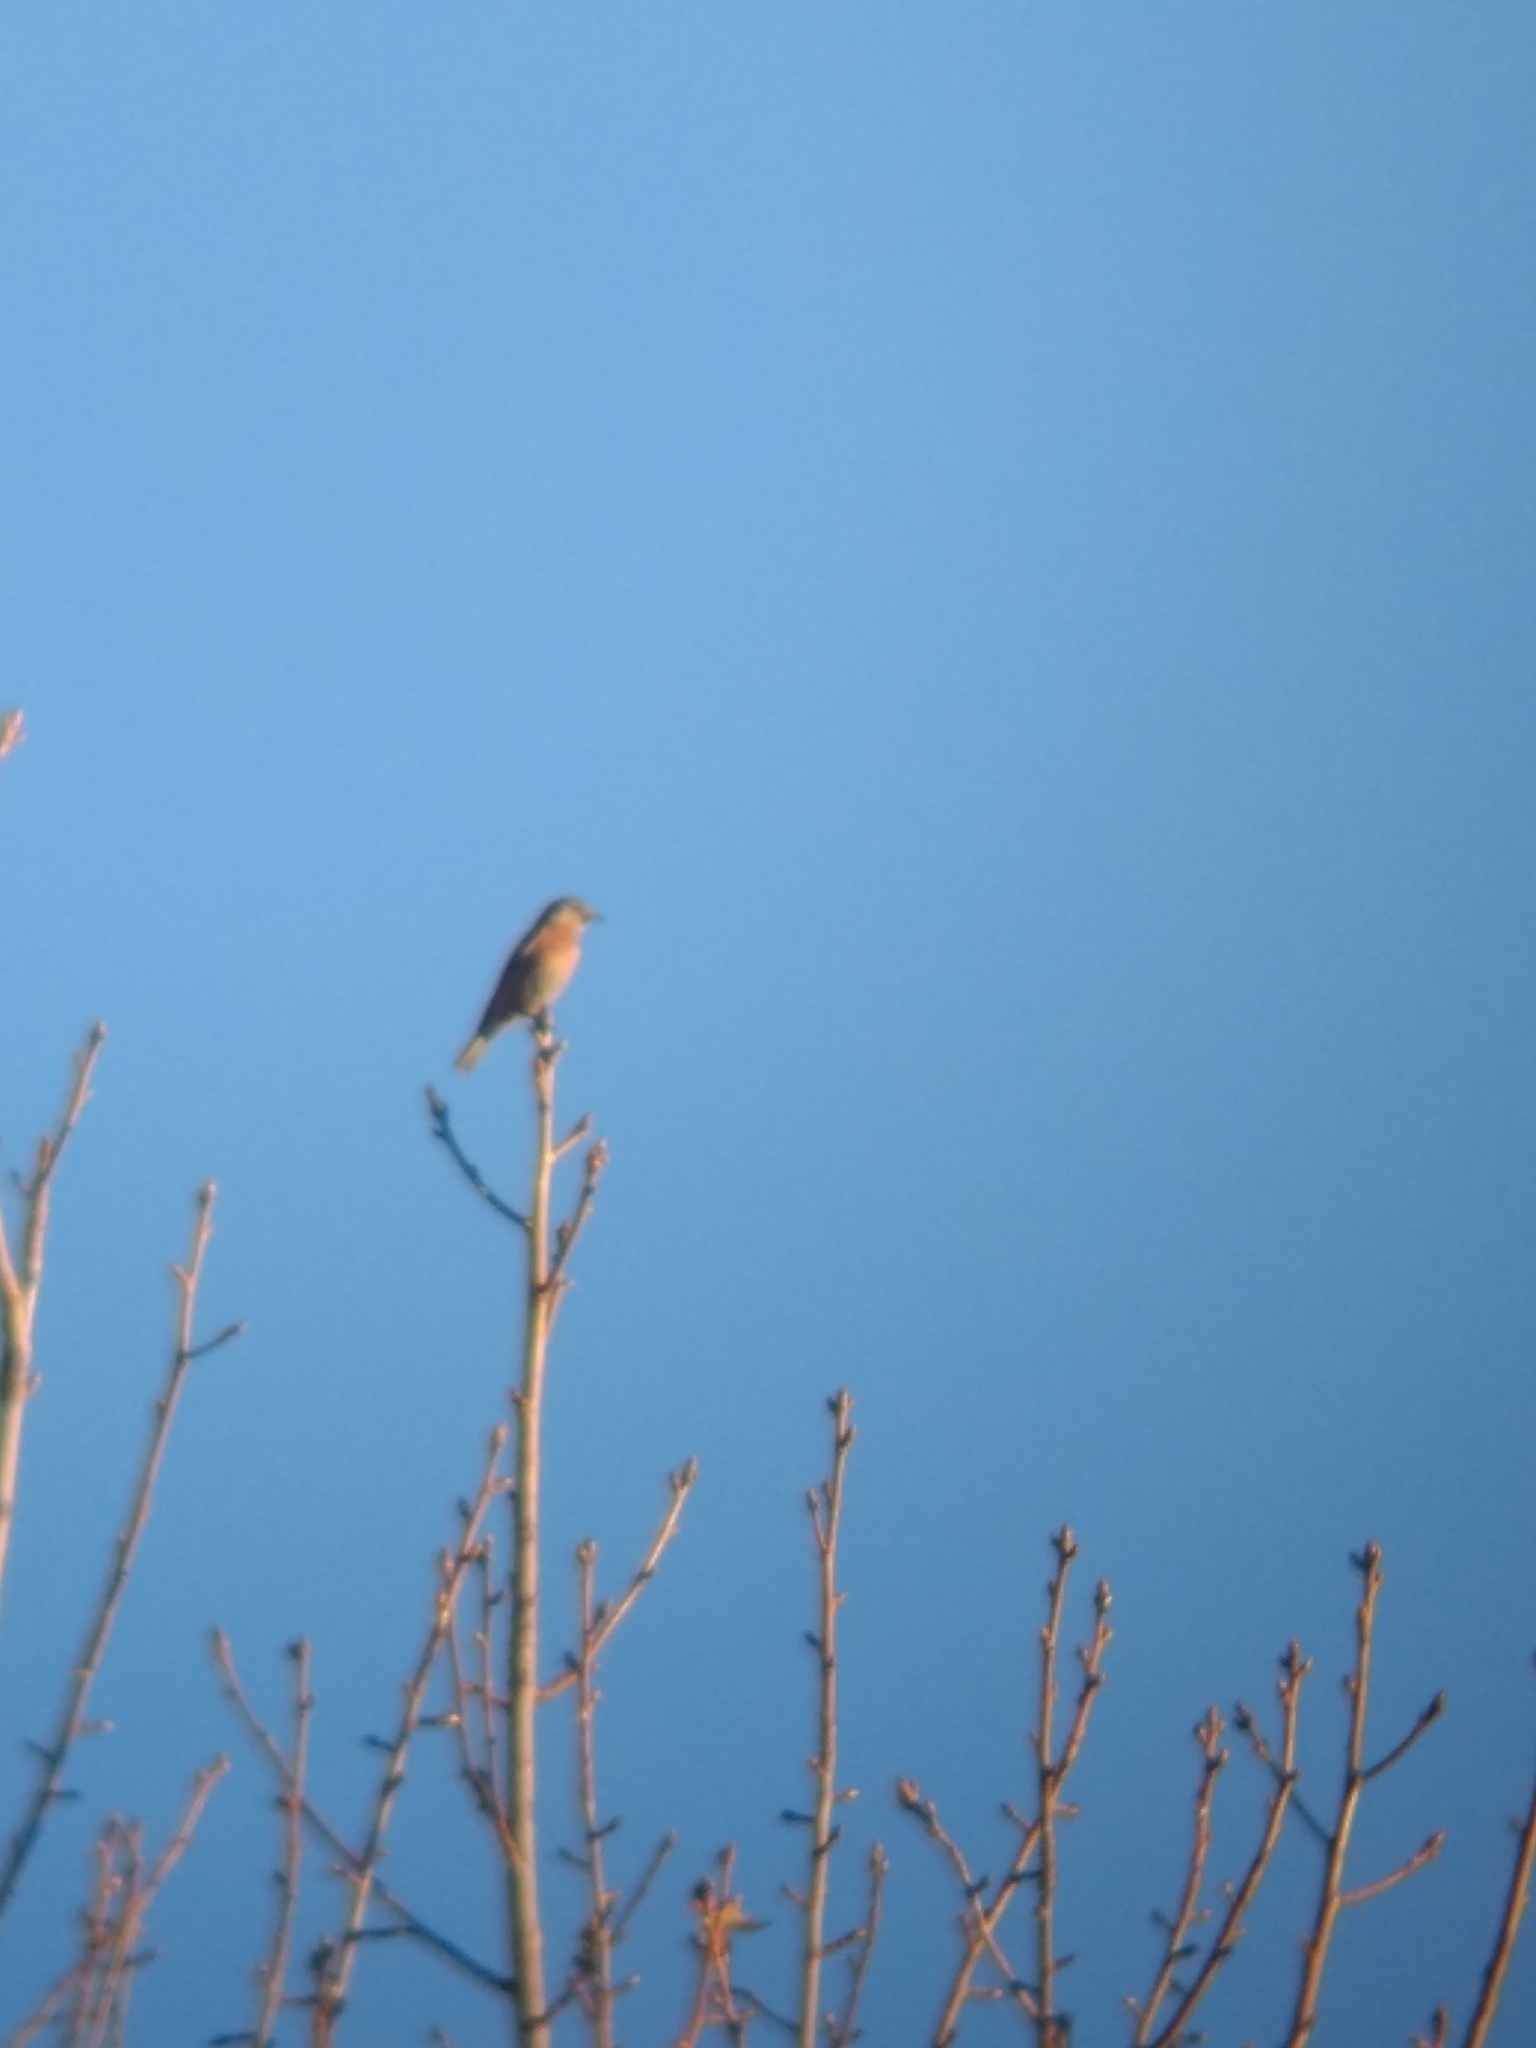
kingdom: Animalia
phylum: Chordata
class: Aves
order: Passeriformes
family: Turdidae
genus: Sialia
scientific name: Sialia mexicana
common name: Western bluebird
